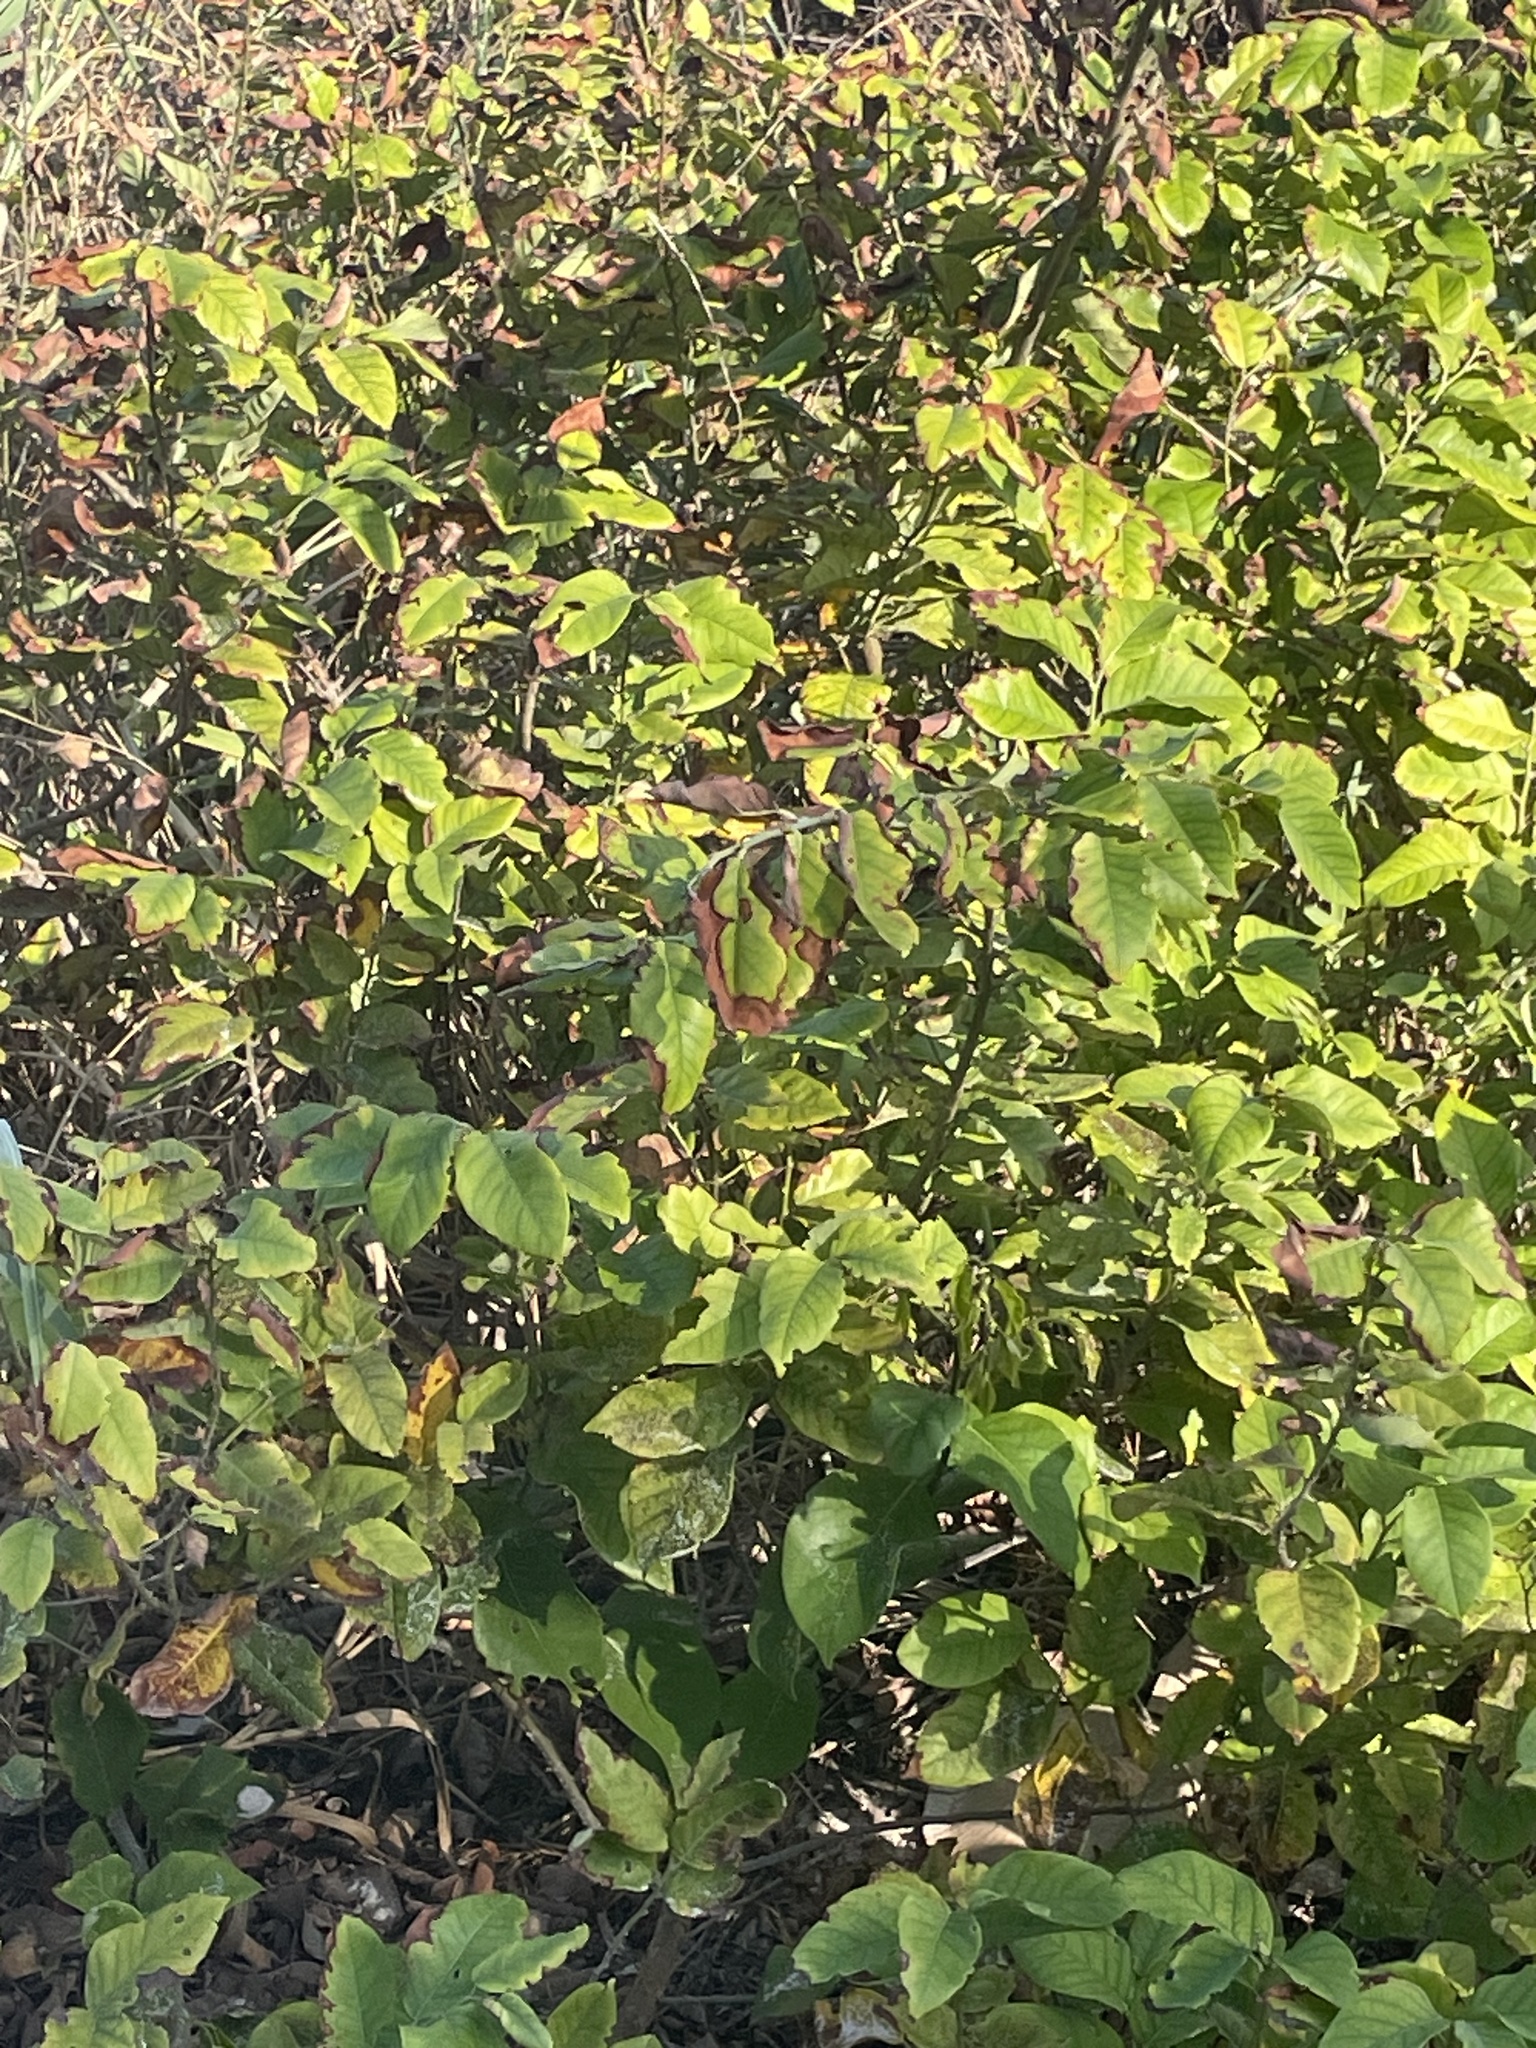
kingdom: Plantae
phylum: Tracheophyta
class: Magnoliopsida
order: Fabales
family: Fabaceae
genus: Dalbergia
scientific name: Dalbergia ecastaphyllum
